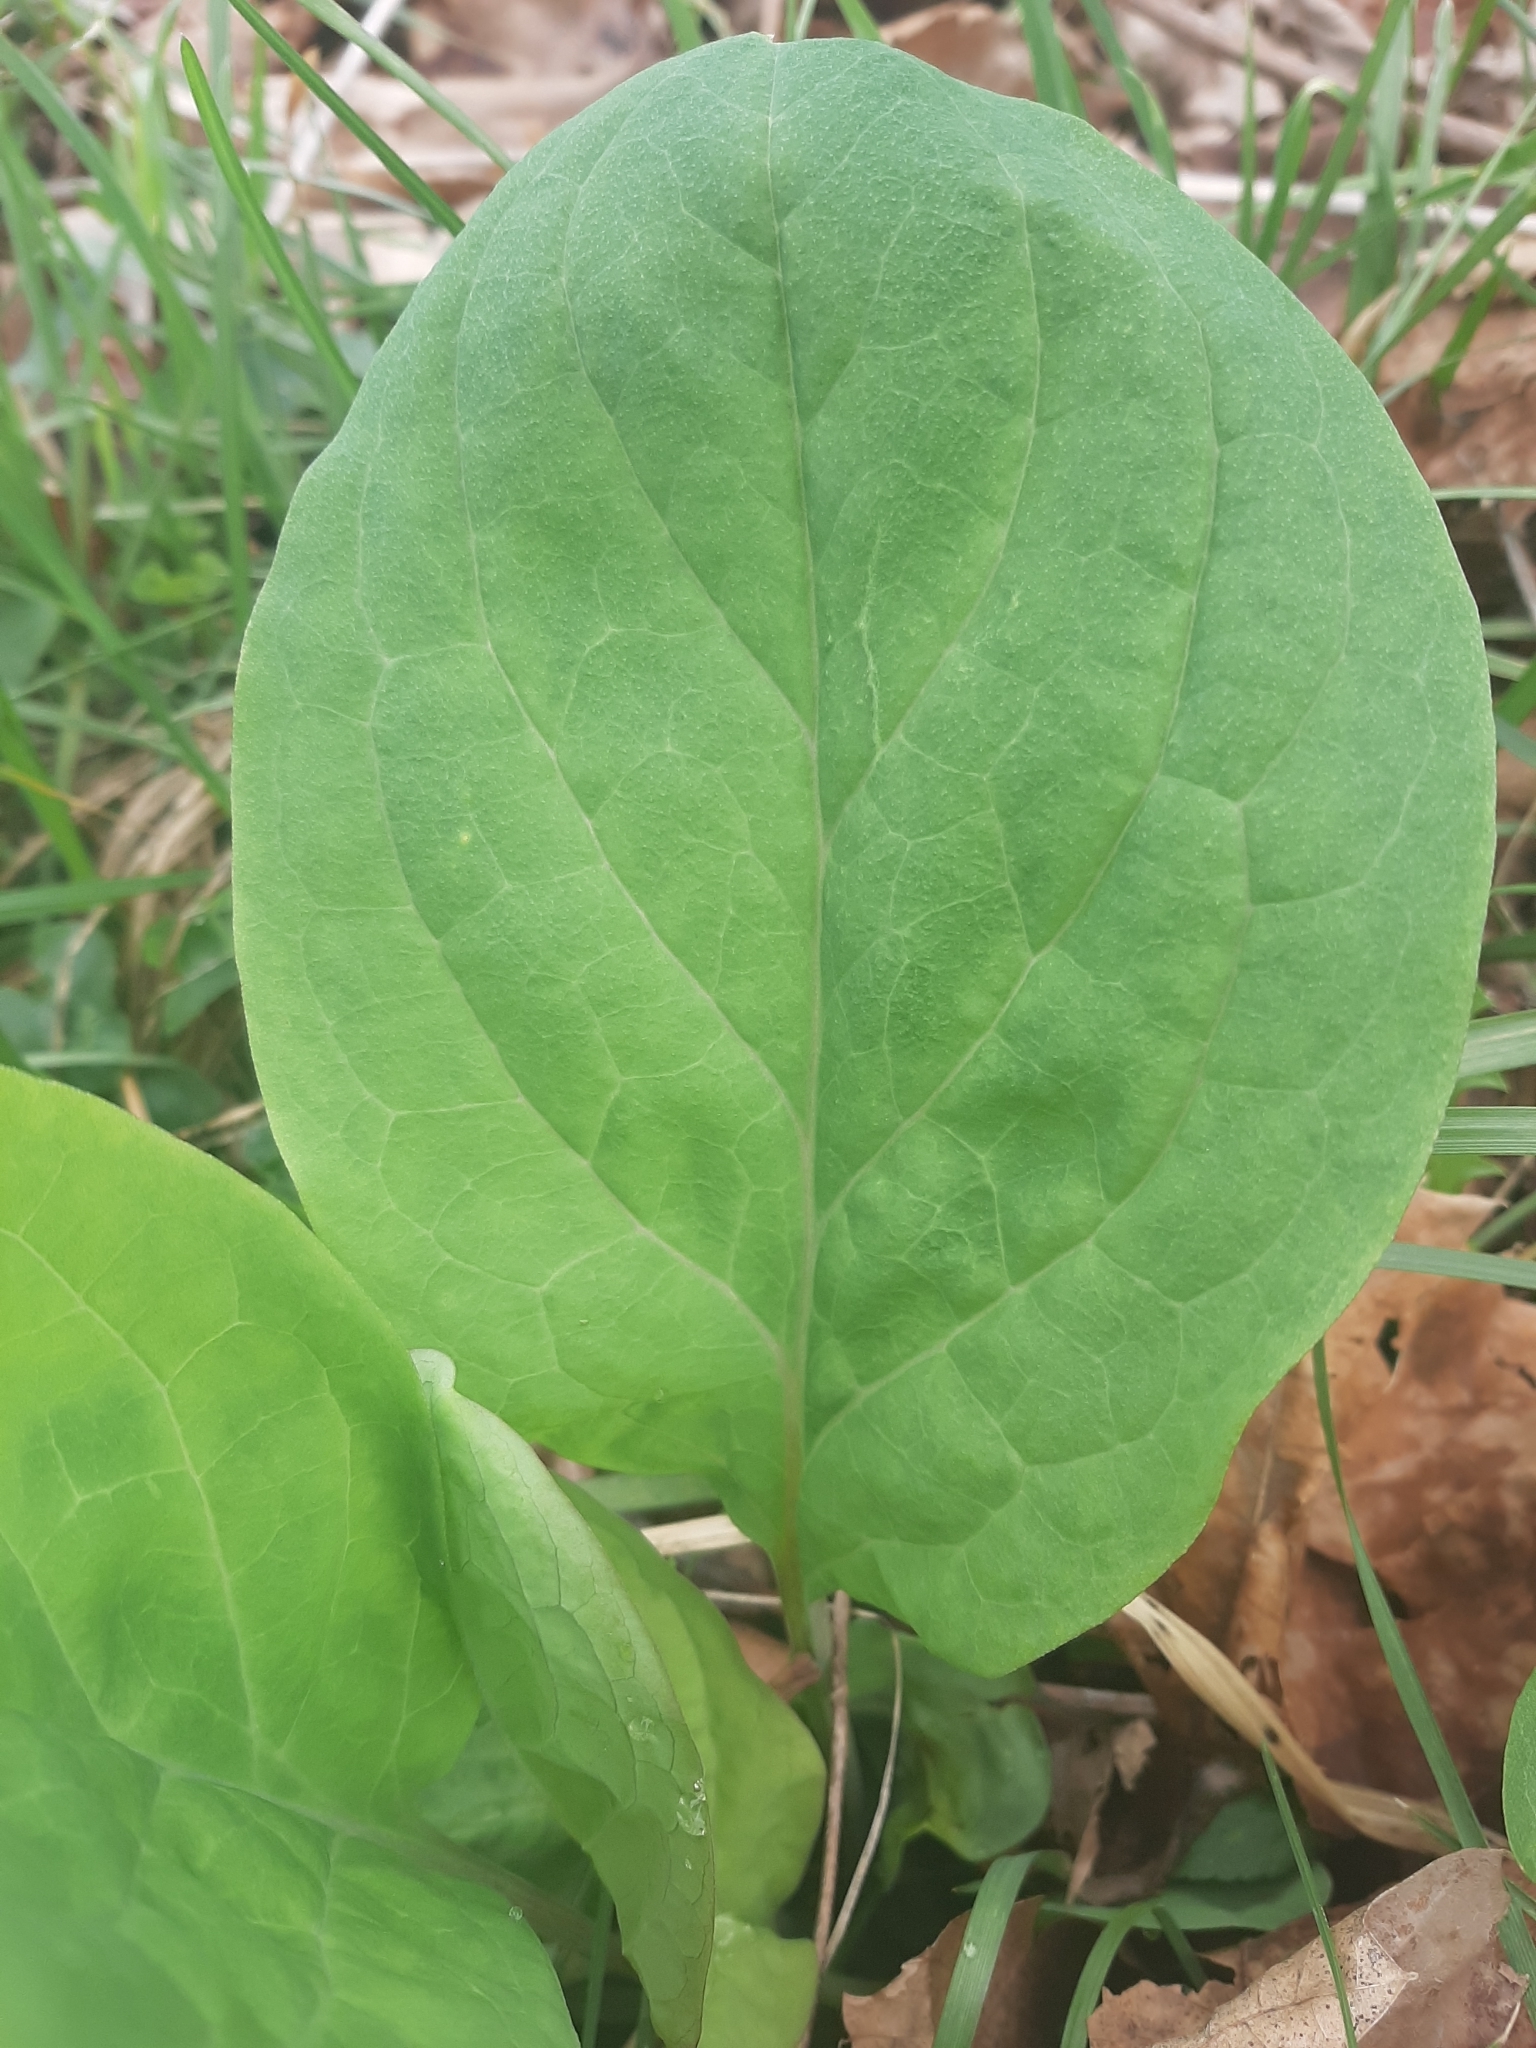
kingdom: Plantae
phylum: Tracheophyta
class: Magnoliopsida
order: Boraginales
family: Boraginaceae
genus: Mertensia
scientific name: Mertensia virginica
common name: Virginia bluebells
